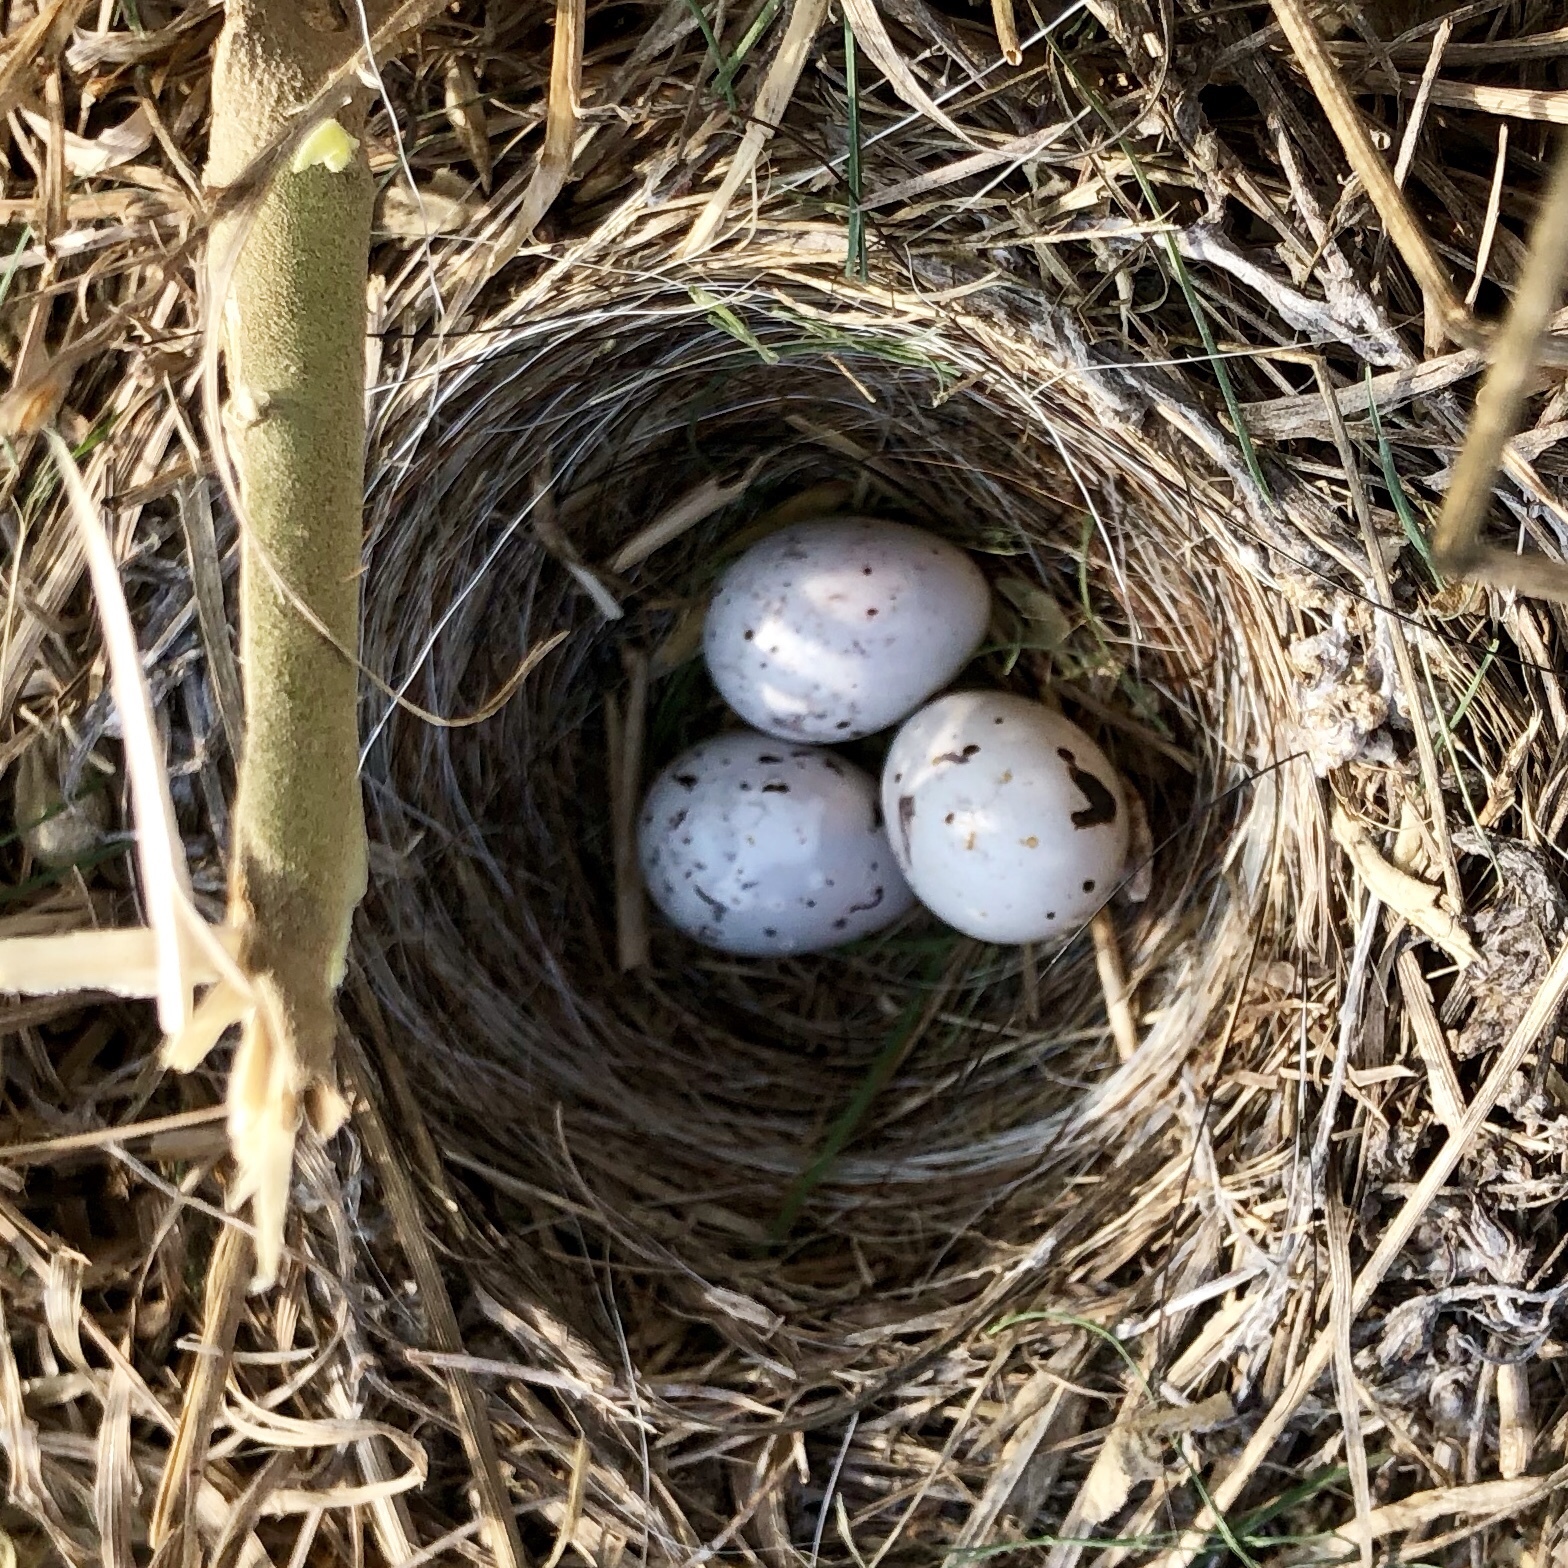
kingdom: Animalia
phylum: Chordata
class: Aves
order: Passeriformes
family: Passerellidae
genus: Chondestes
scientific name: Chondestes grammacus
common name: Lark sparrow
